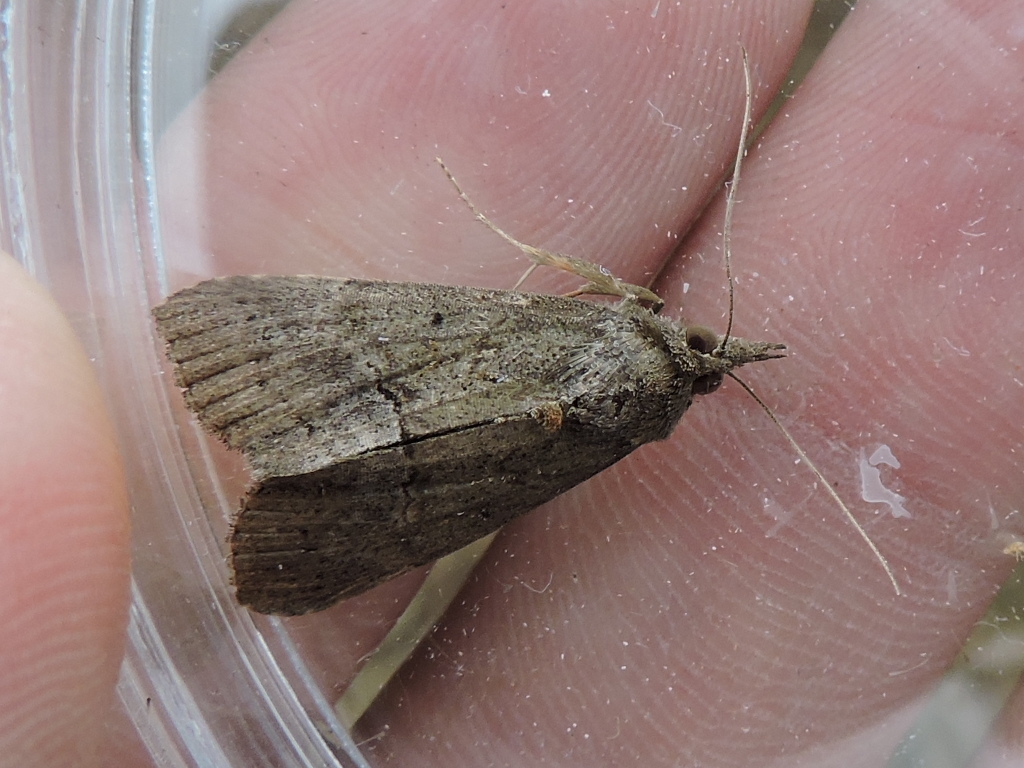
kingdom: Animalia
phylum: Arthropoda
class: Insecta
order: Lepidoptera
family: Erebidae
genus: Hypena
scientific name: Hypena scabra
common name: Green cloverworm
